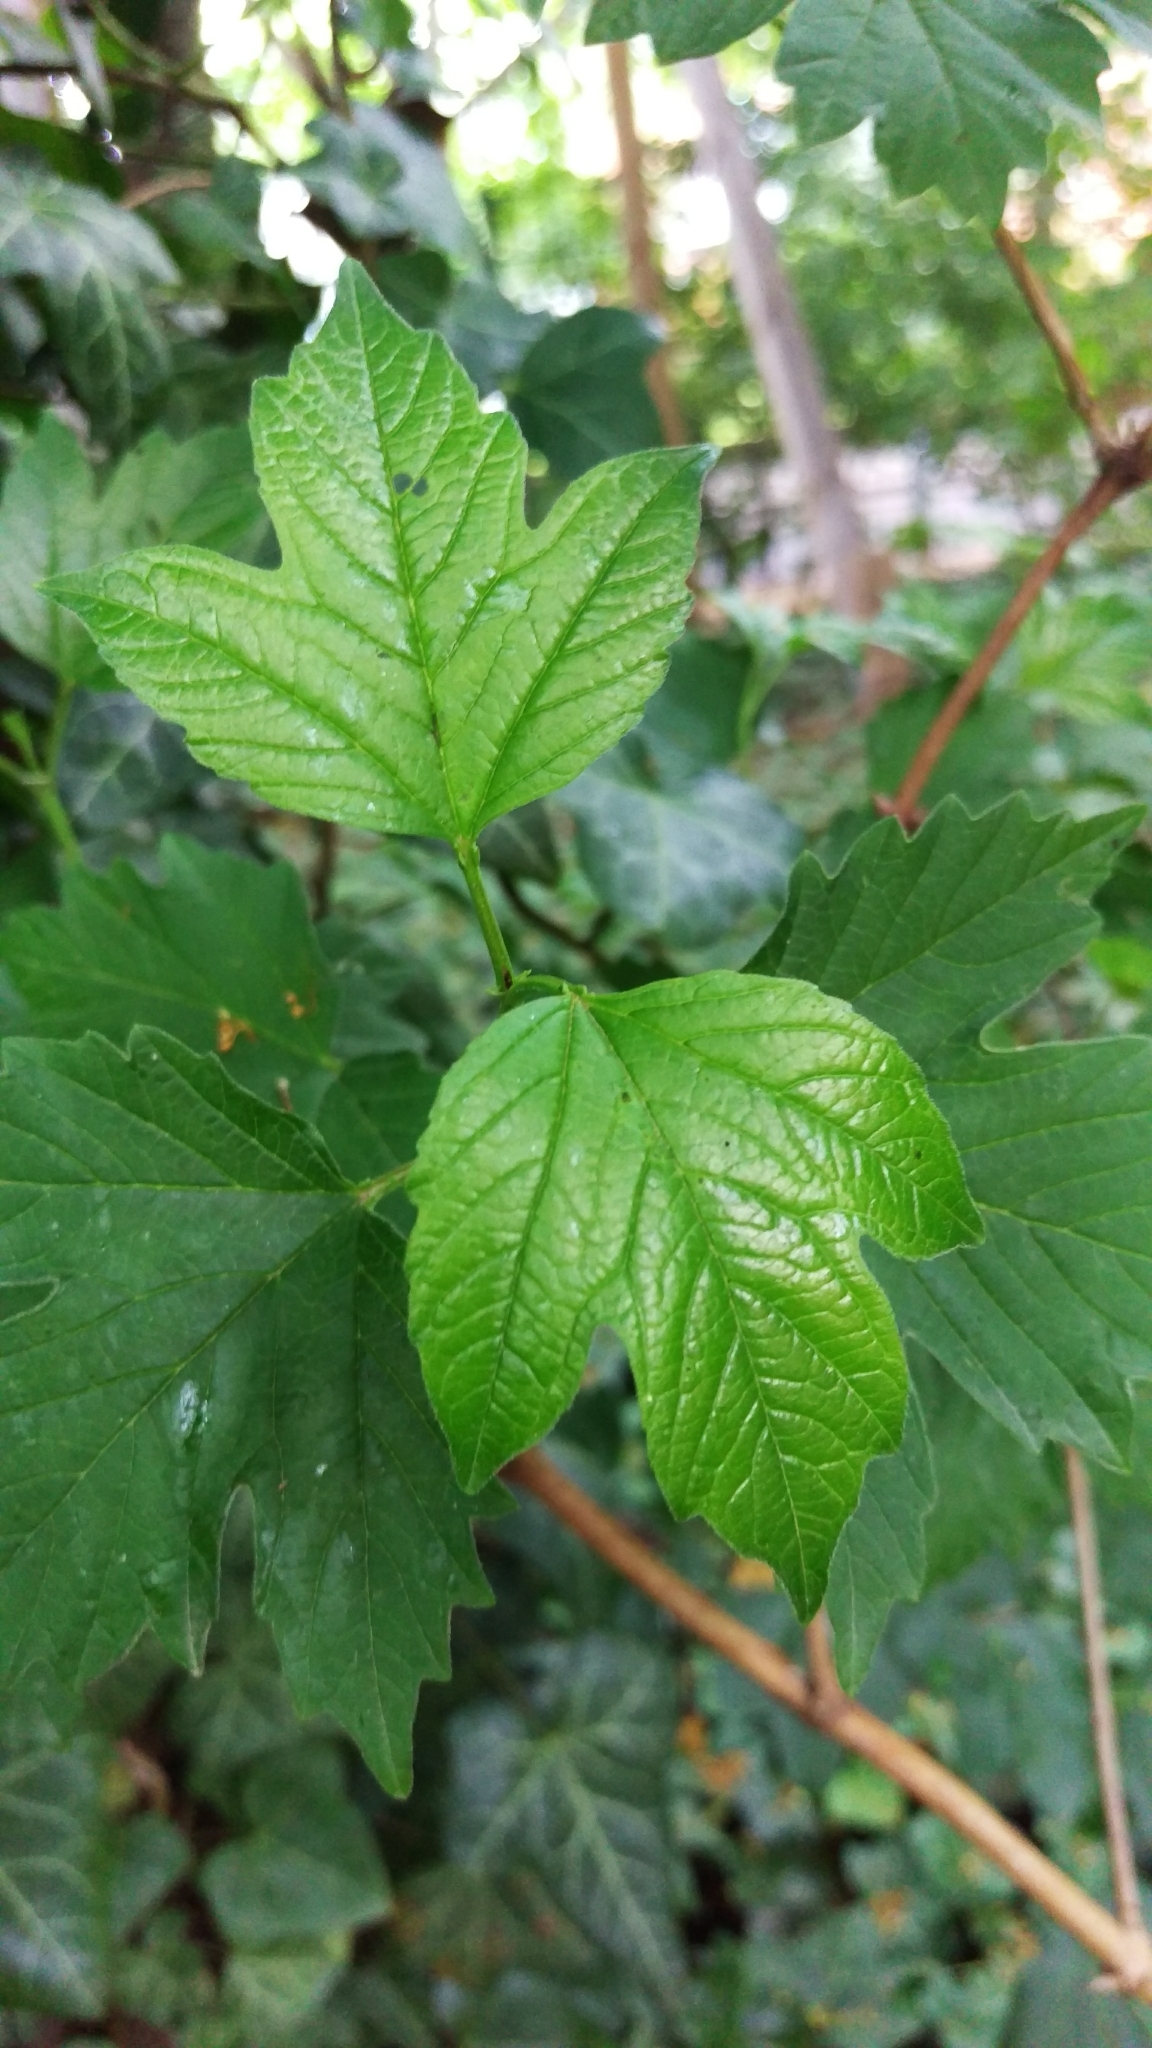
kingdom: Plantae
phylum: Tracheophyta
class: Magnoliopsida
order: Dipsacales
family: Viburnaceae
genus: Viburnum
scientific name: Viburnum opulus
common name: Guelder-rose
